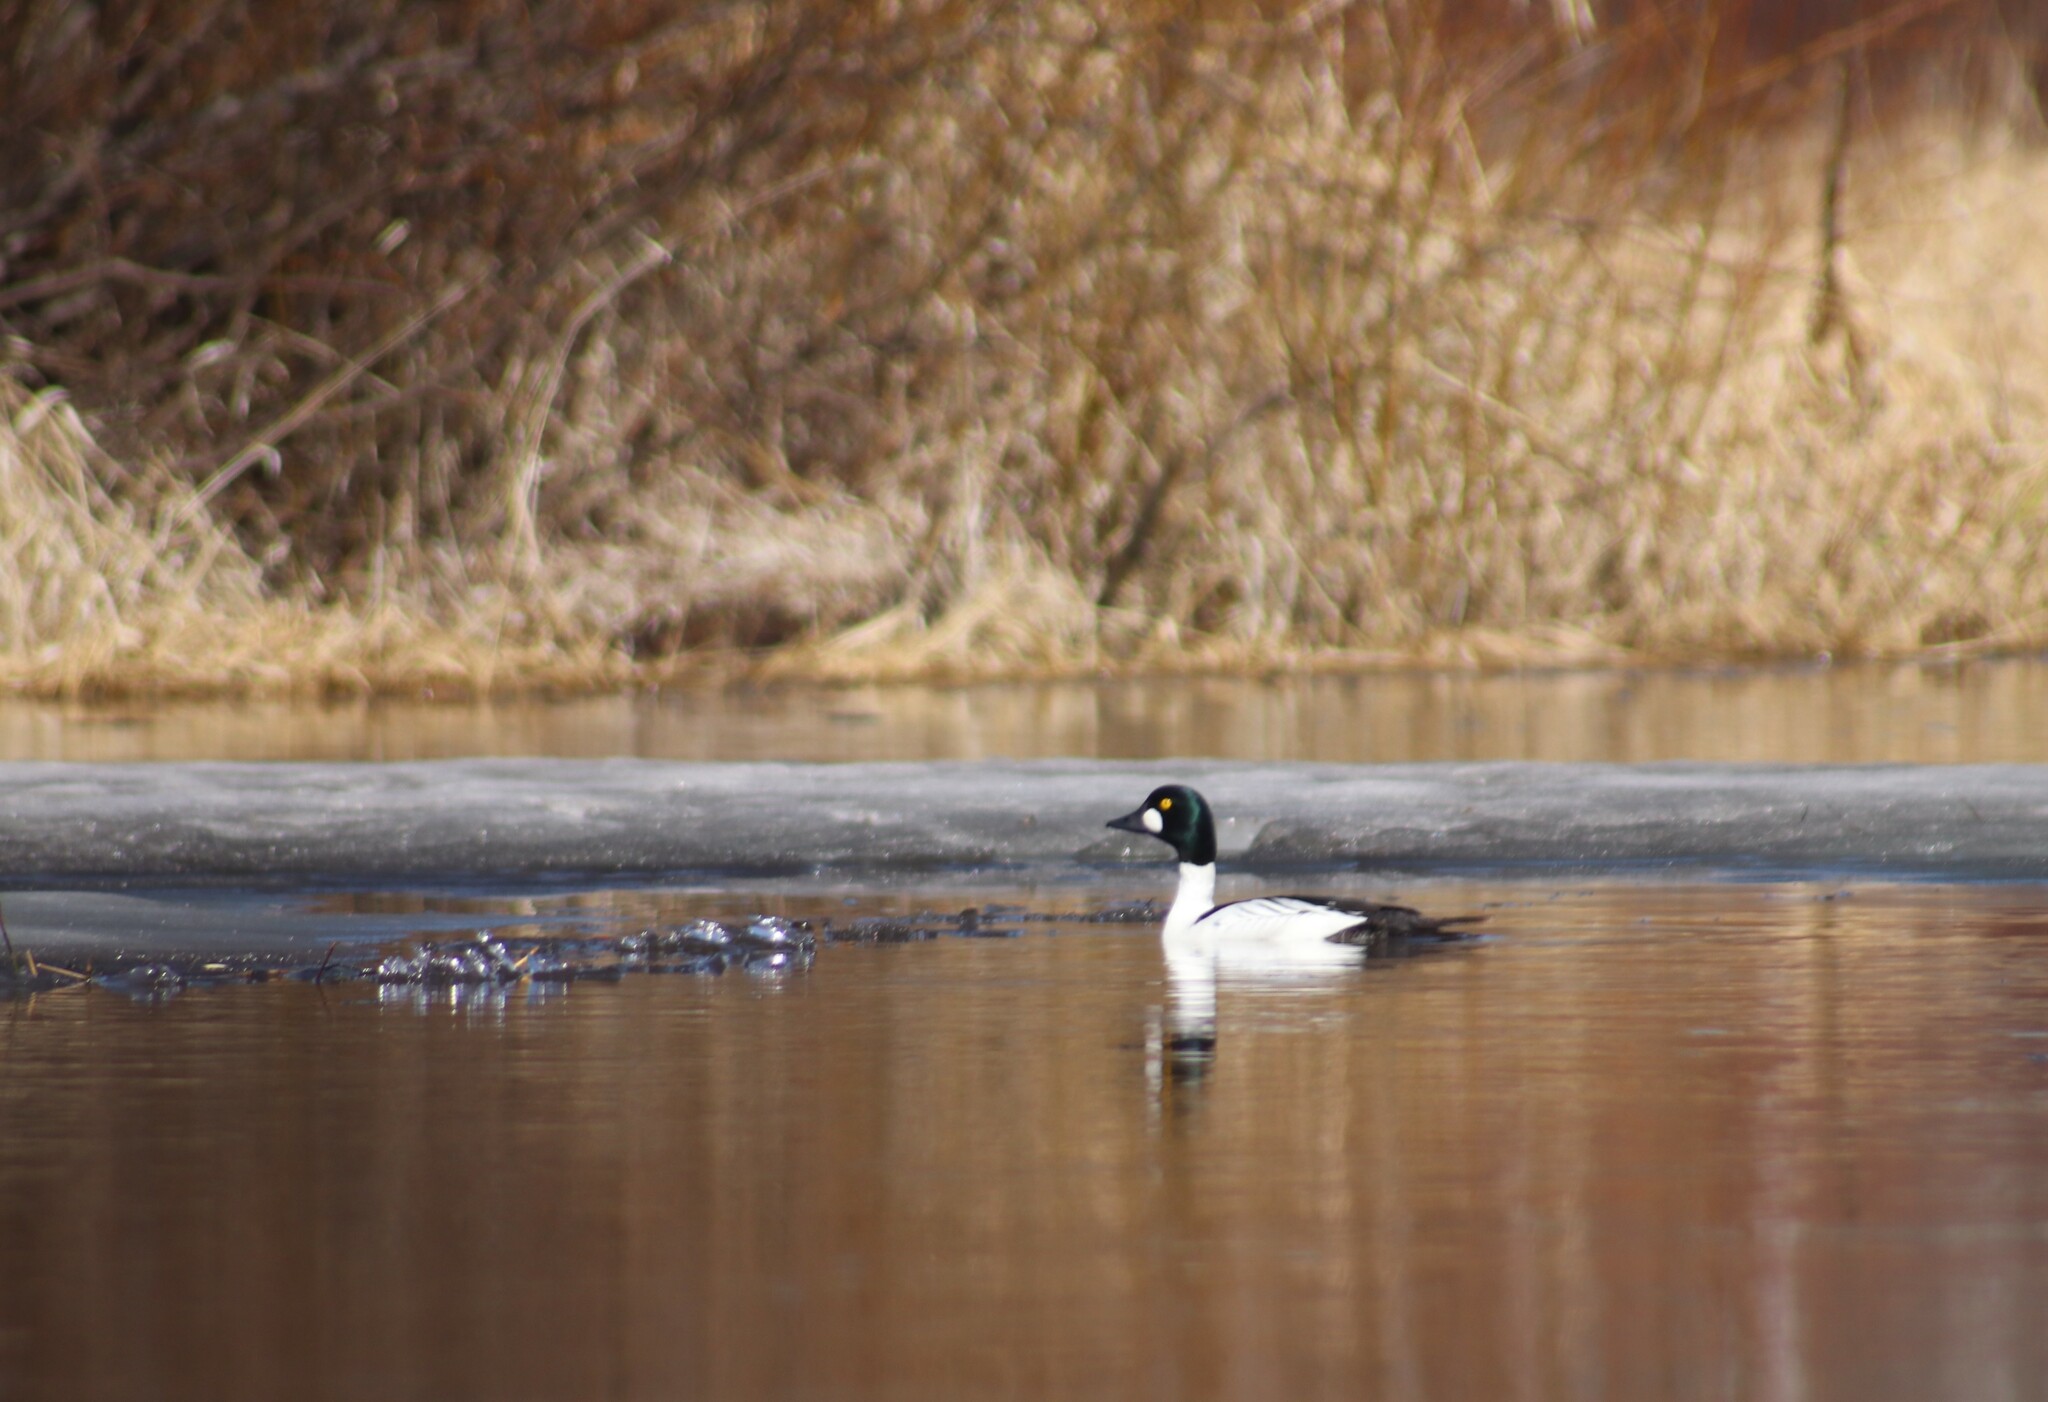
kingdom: Animalia
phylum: Chordata
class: Aves
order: Anseriformes
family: Anatidae
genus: Bucephala
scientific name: Bucephala clangula
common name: Common goldeneye
